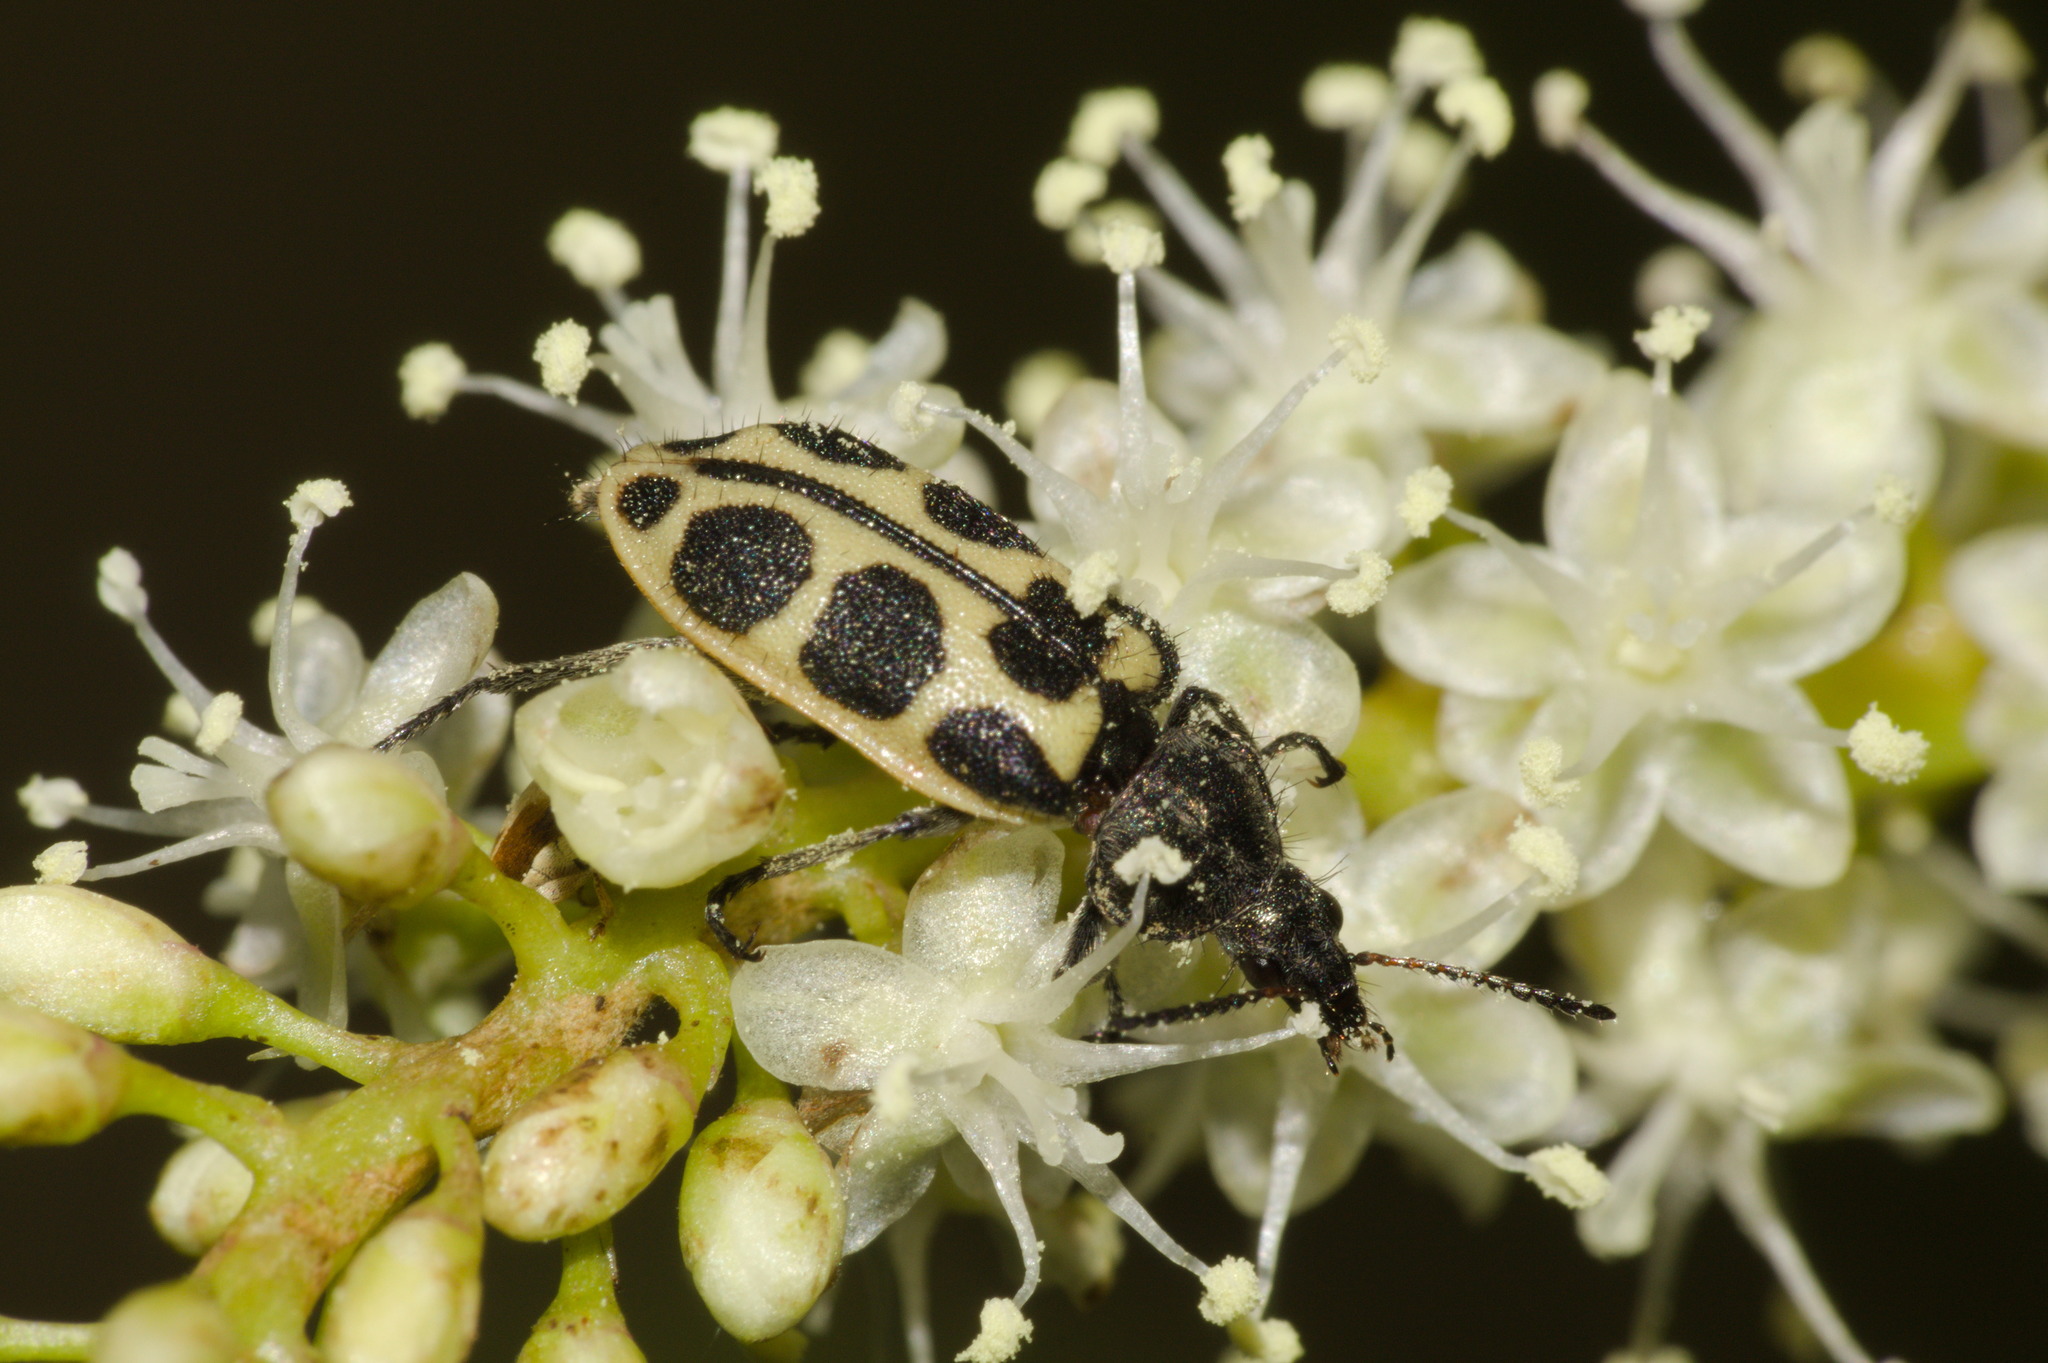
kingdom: Animalia
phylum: Arthropoda
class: Insecta
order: Coleoptera
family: Melyridae
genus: Astylus
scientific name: Astylus
